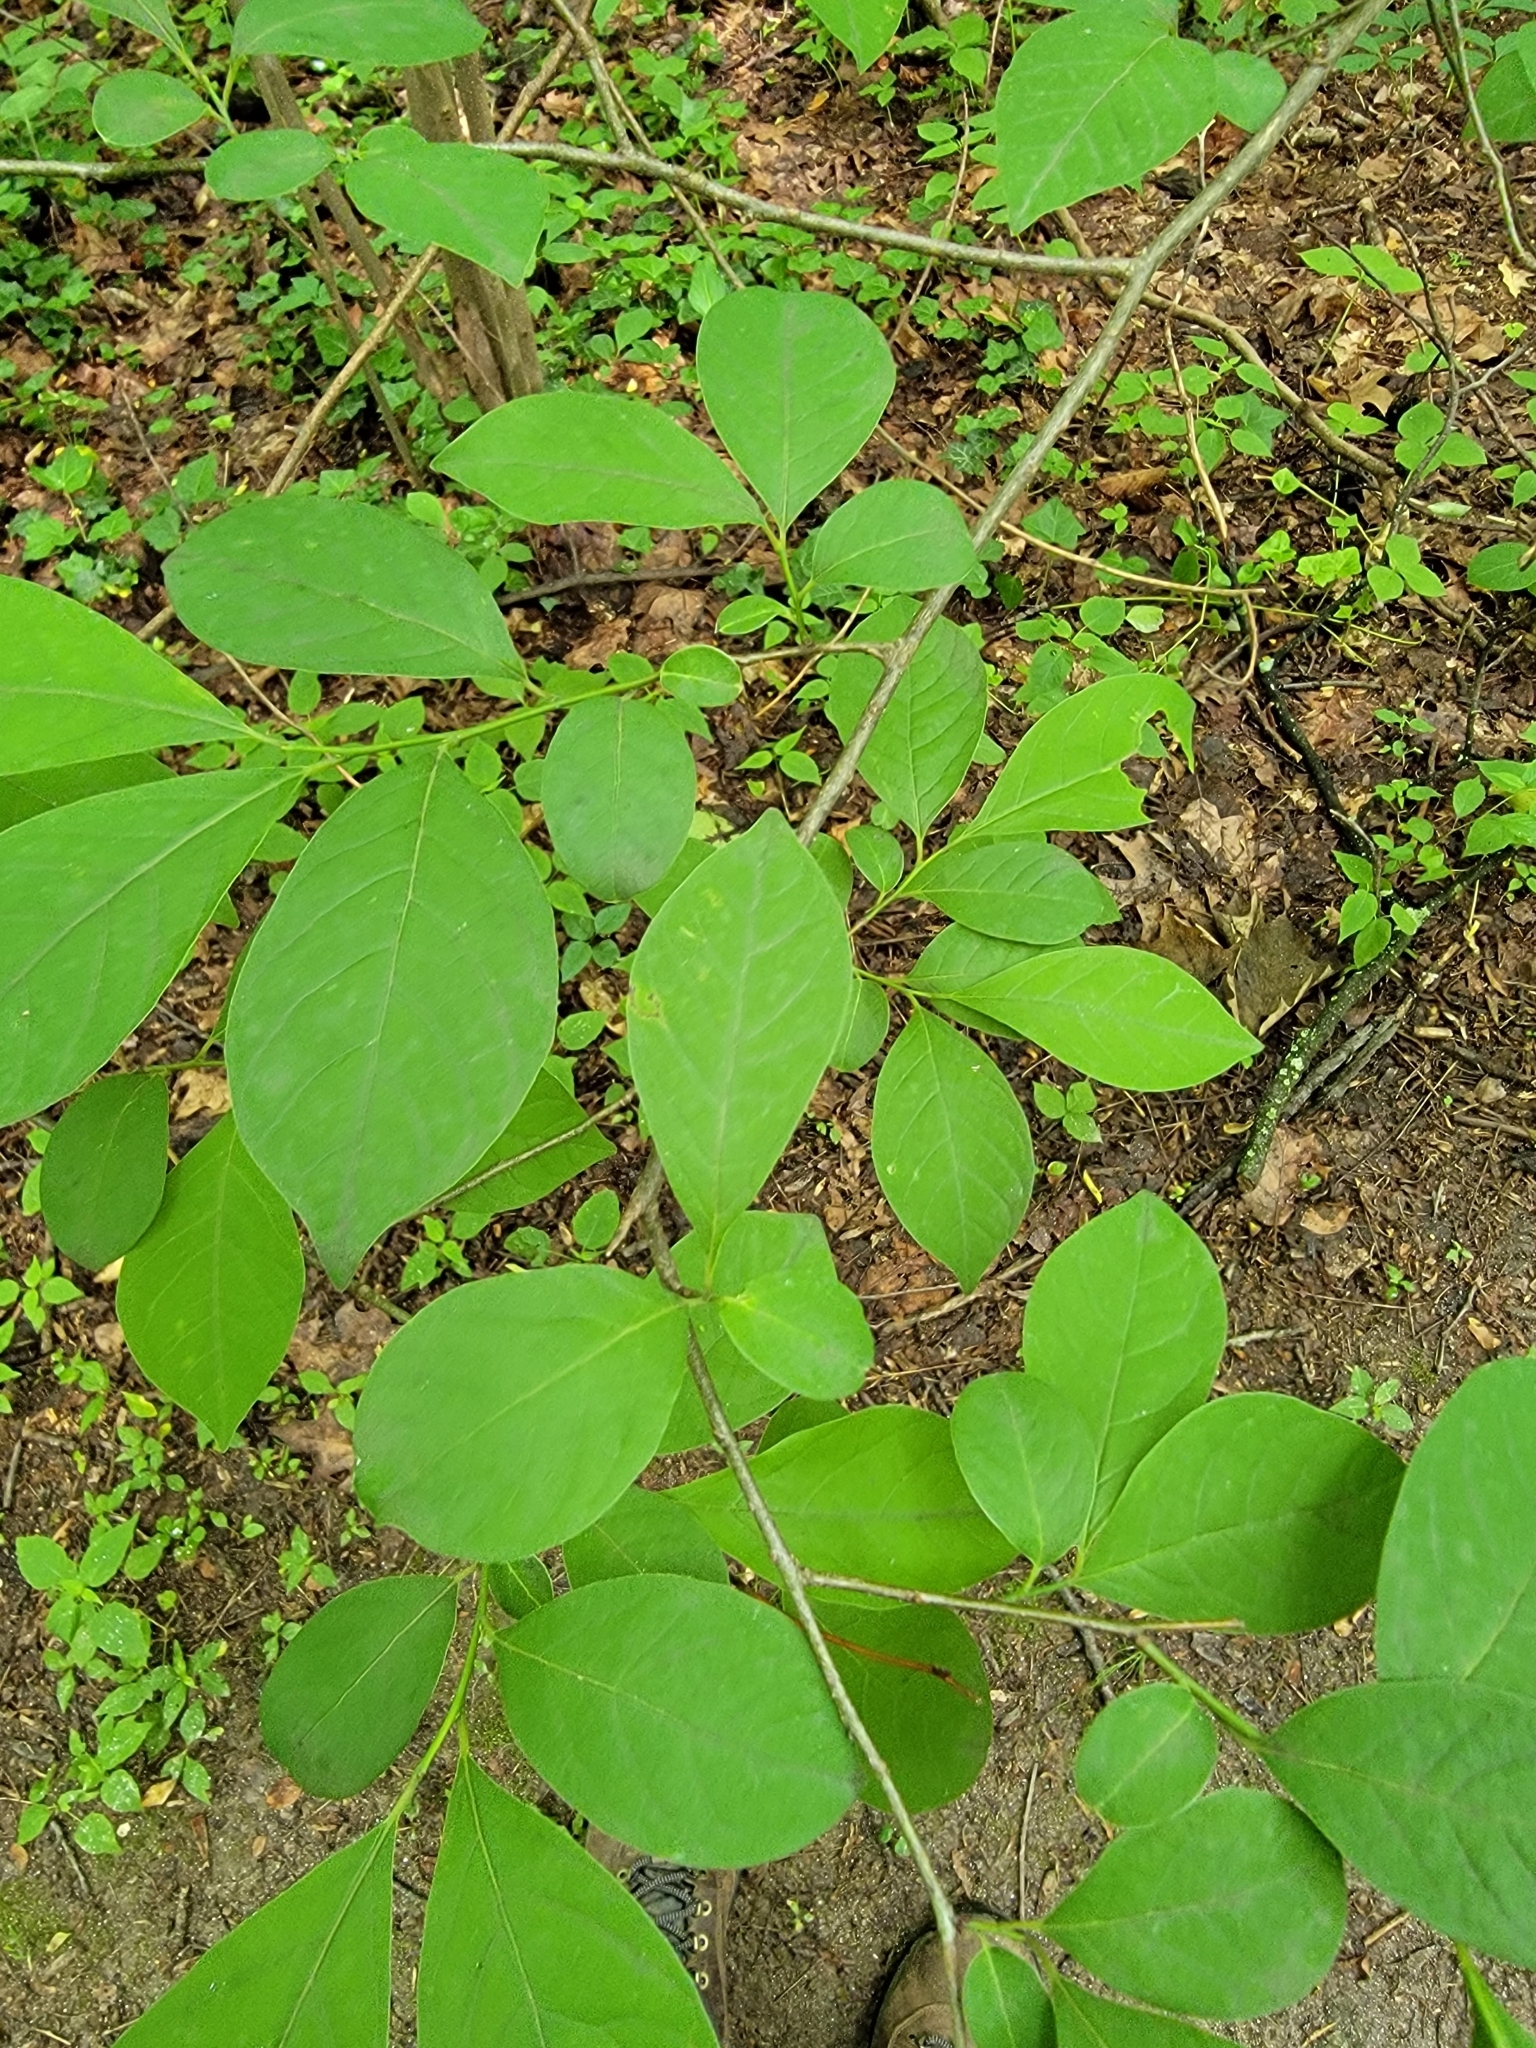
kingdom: Plantae
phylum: Tracheophyta
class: Magnoliopsida
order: Laurales
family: Lauraceae
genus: Lindera
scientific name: Lindera benzoin
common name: Spicebush
